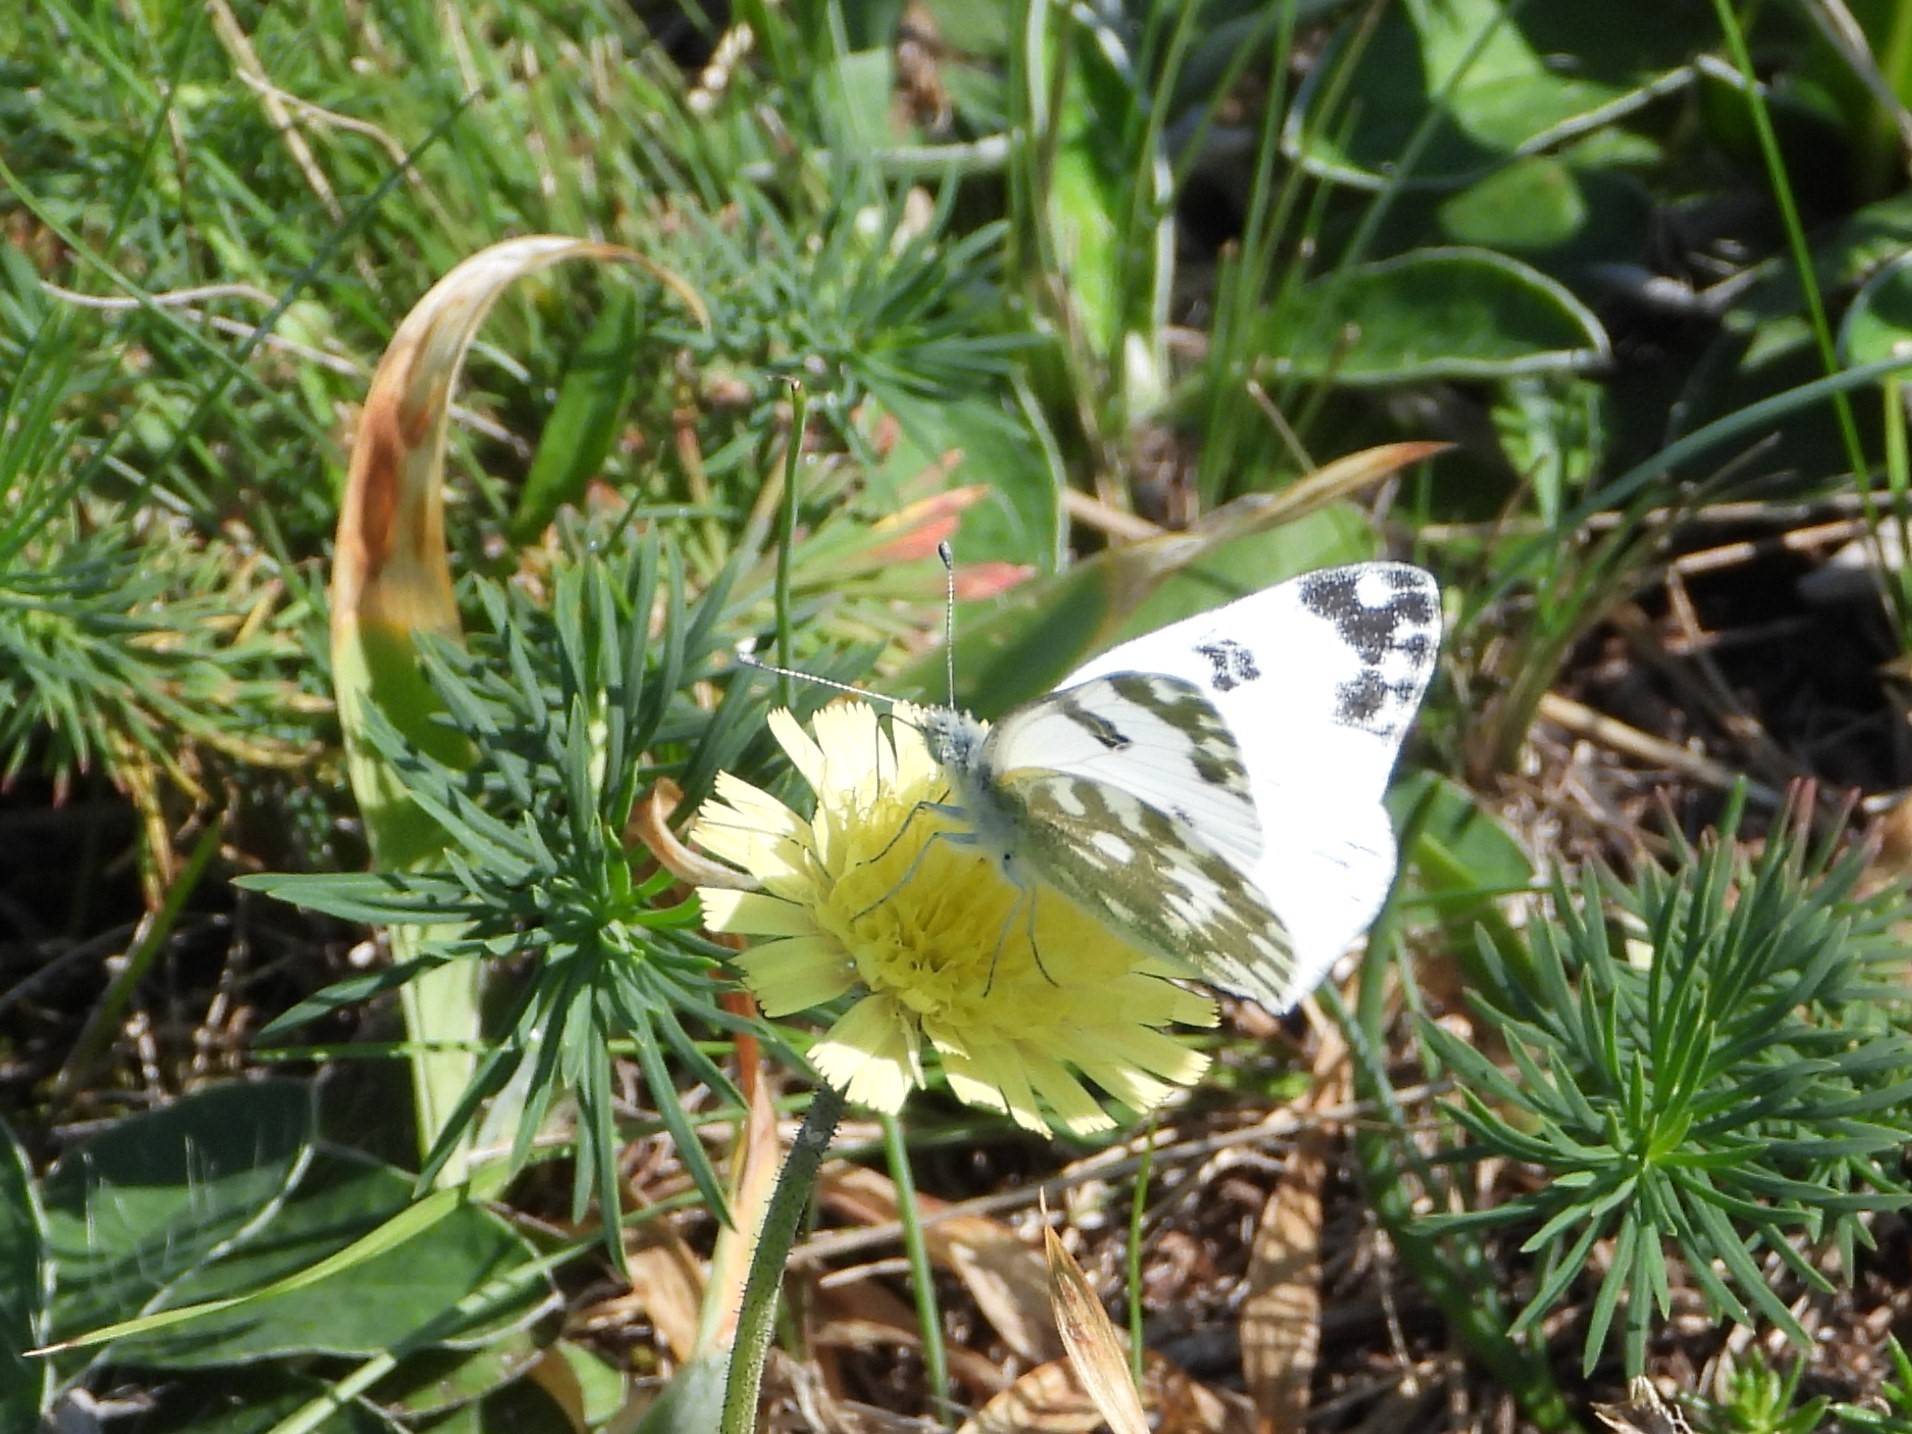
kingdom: Animalia
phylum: Arthropoda
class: Insecta
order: Lepidoptera
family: Pieridae
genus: Pontia
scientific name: Pontia edusa
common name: Eastern bath white
